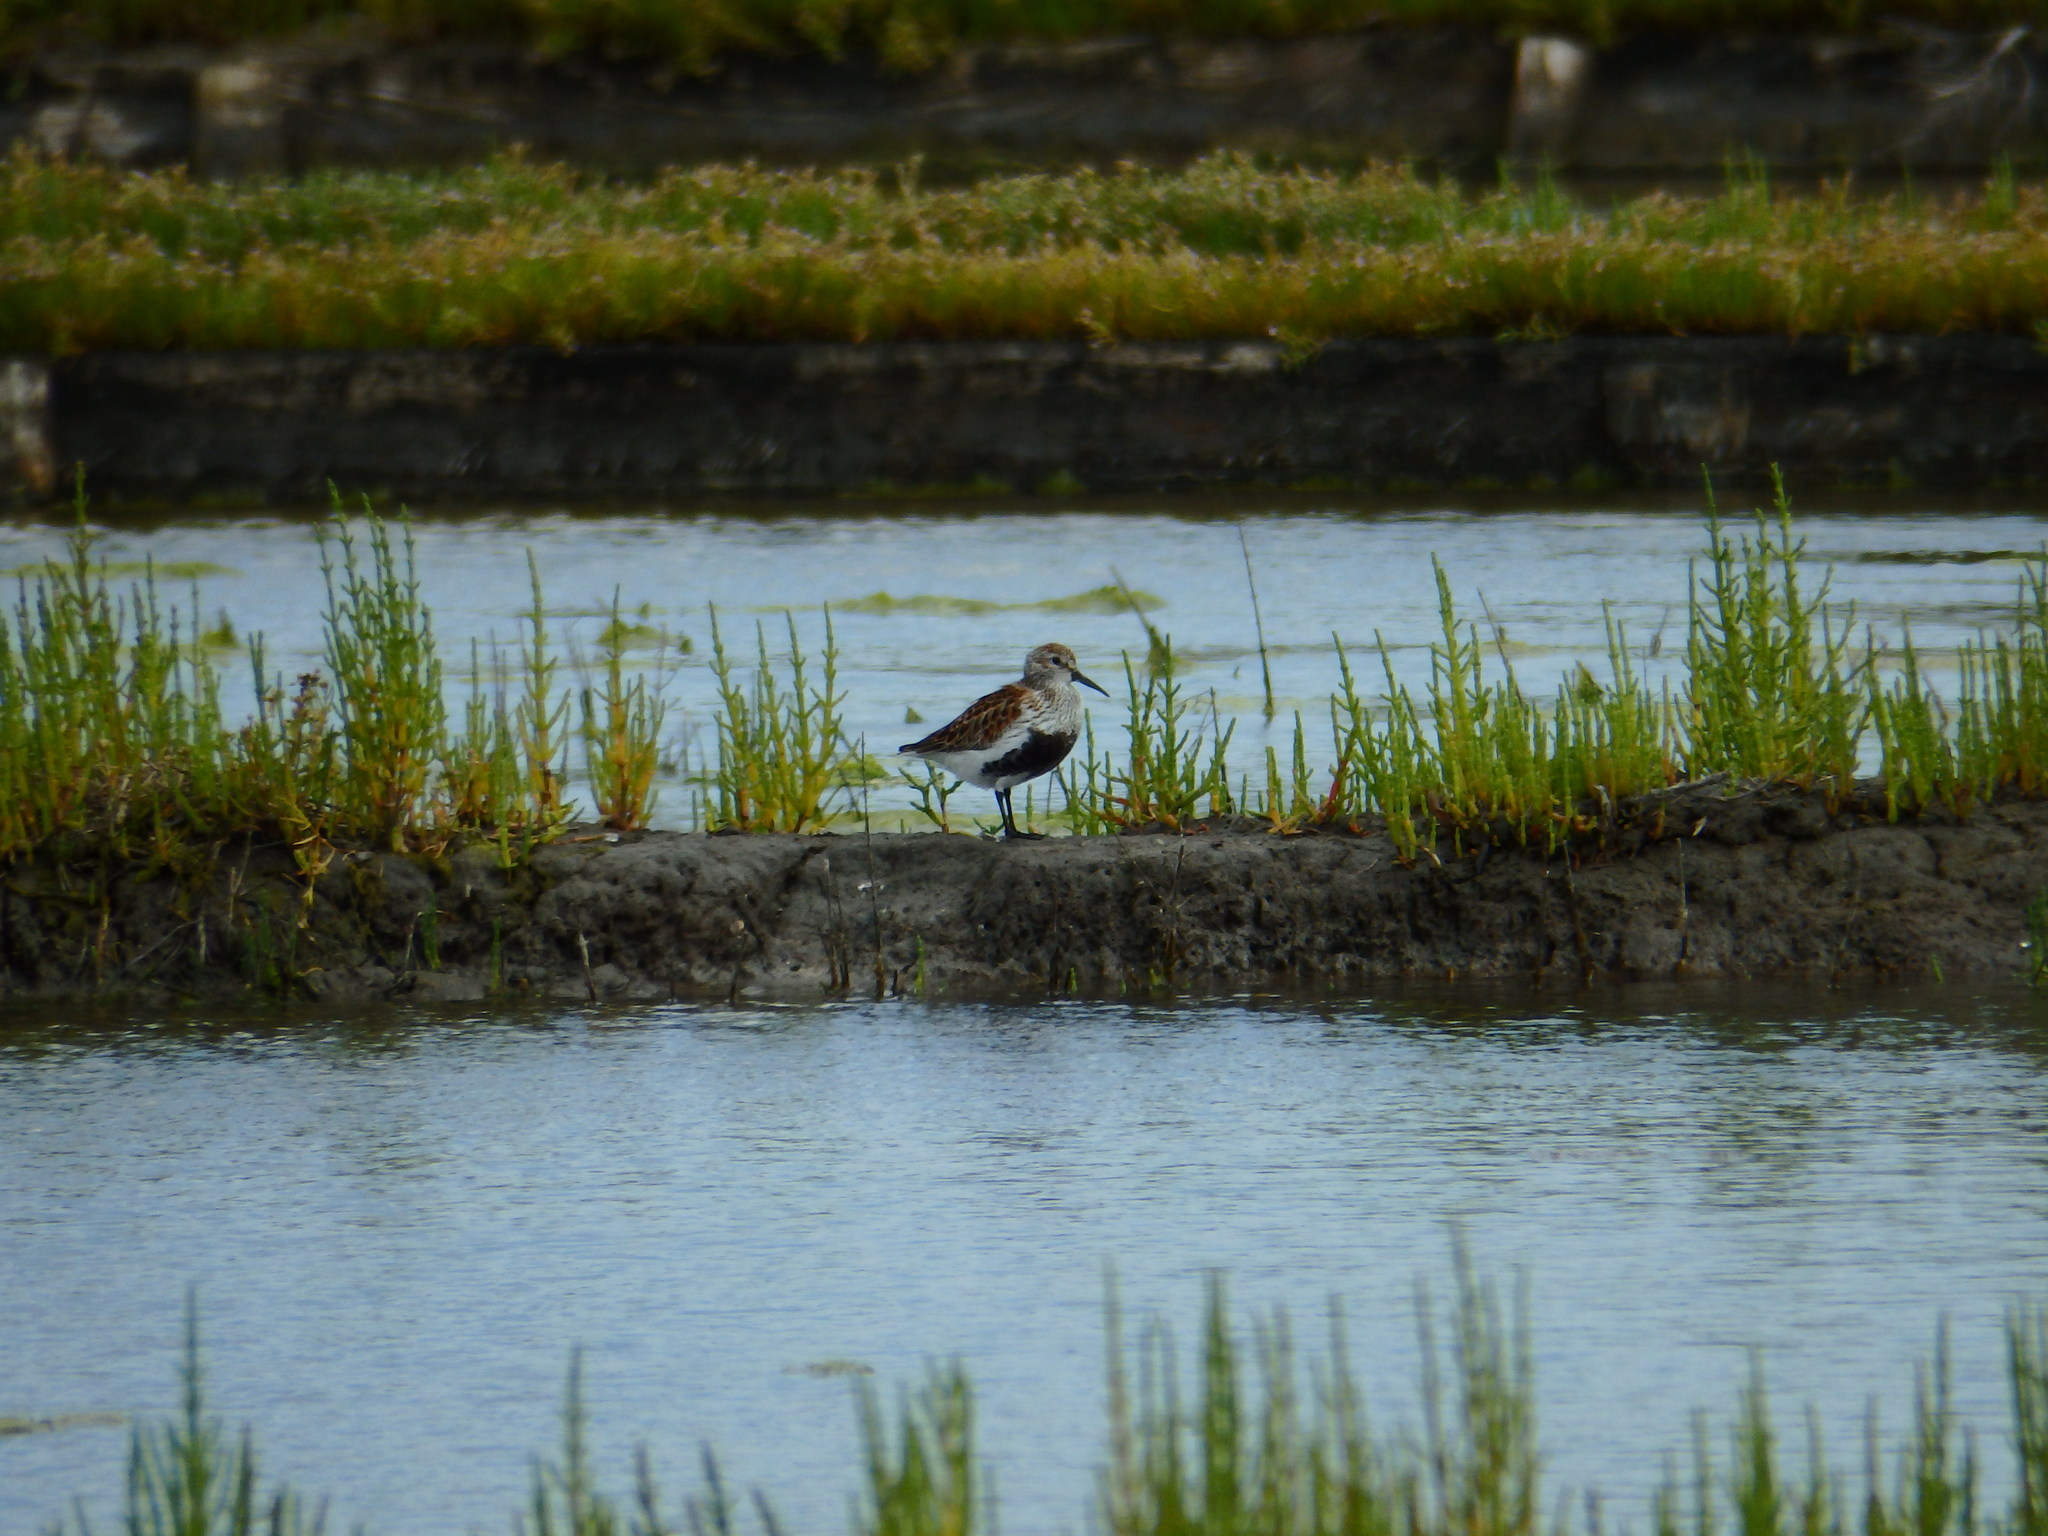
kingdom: Animalia
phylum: Chordata
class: Aves
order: Charadriiformes
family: Scolopacidae
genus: Calidris
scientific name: Calidris alpina
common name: Dunlin
